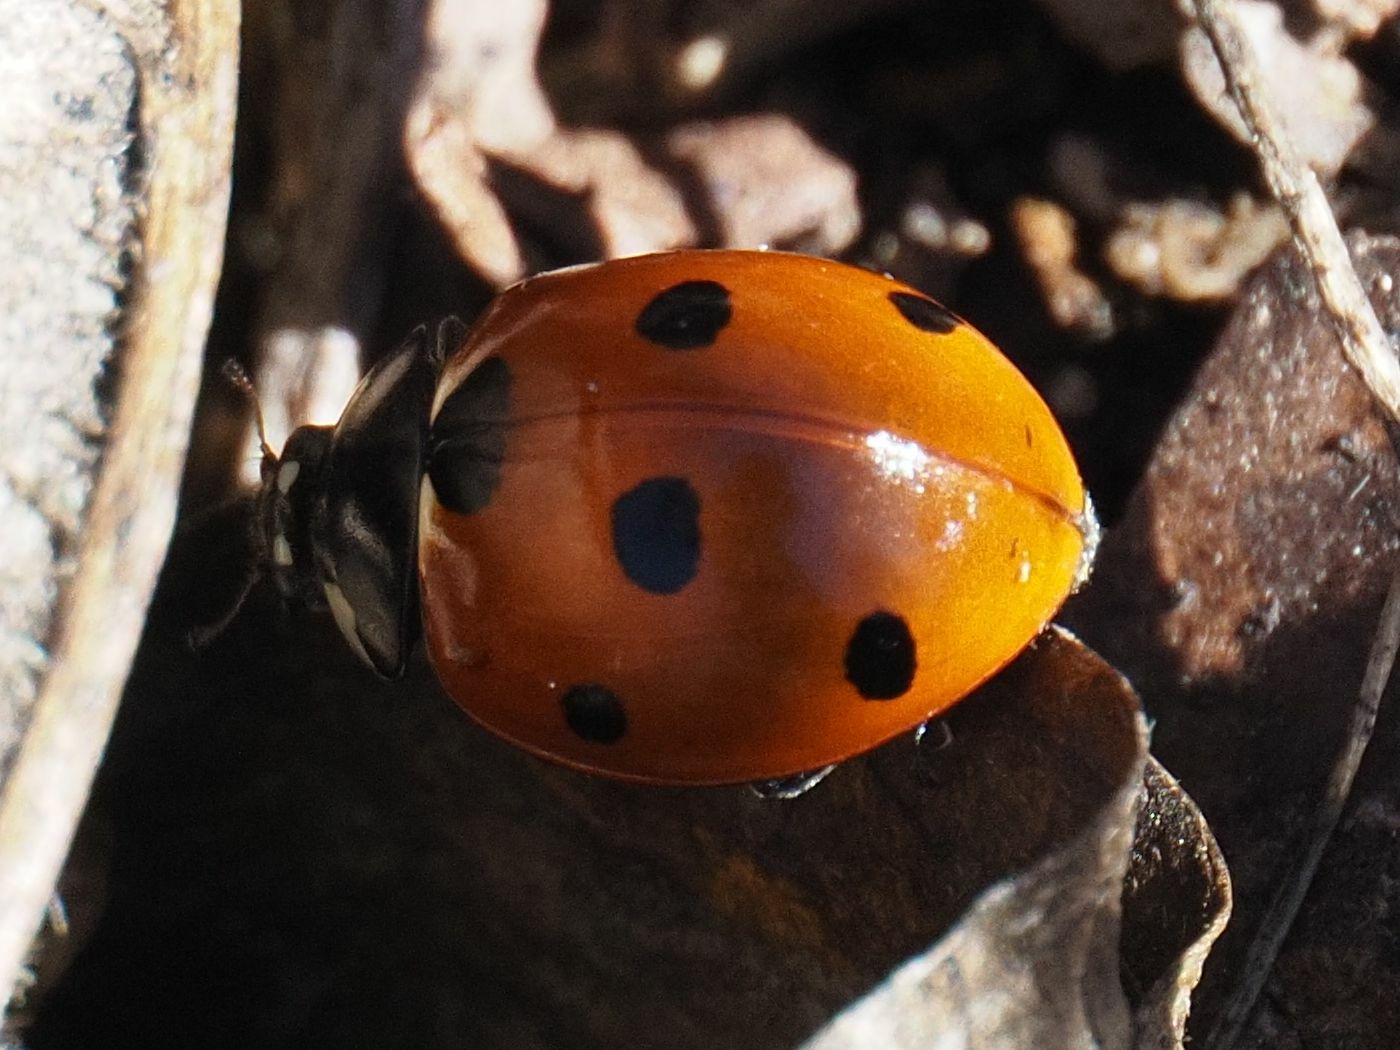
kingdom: Animalia
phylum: Arthropoda
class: Insecta
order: Coleoptera
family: Coccinellidae
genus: Coccinella
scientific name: Coccinella septempunctata
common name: Sevenspotted lady beetle
